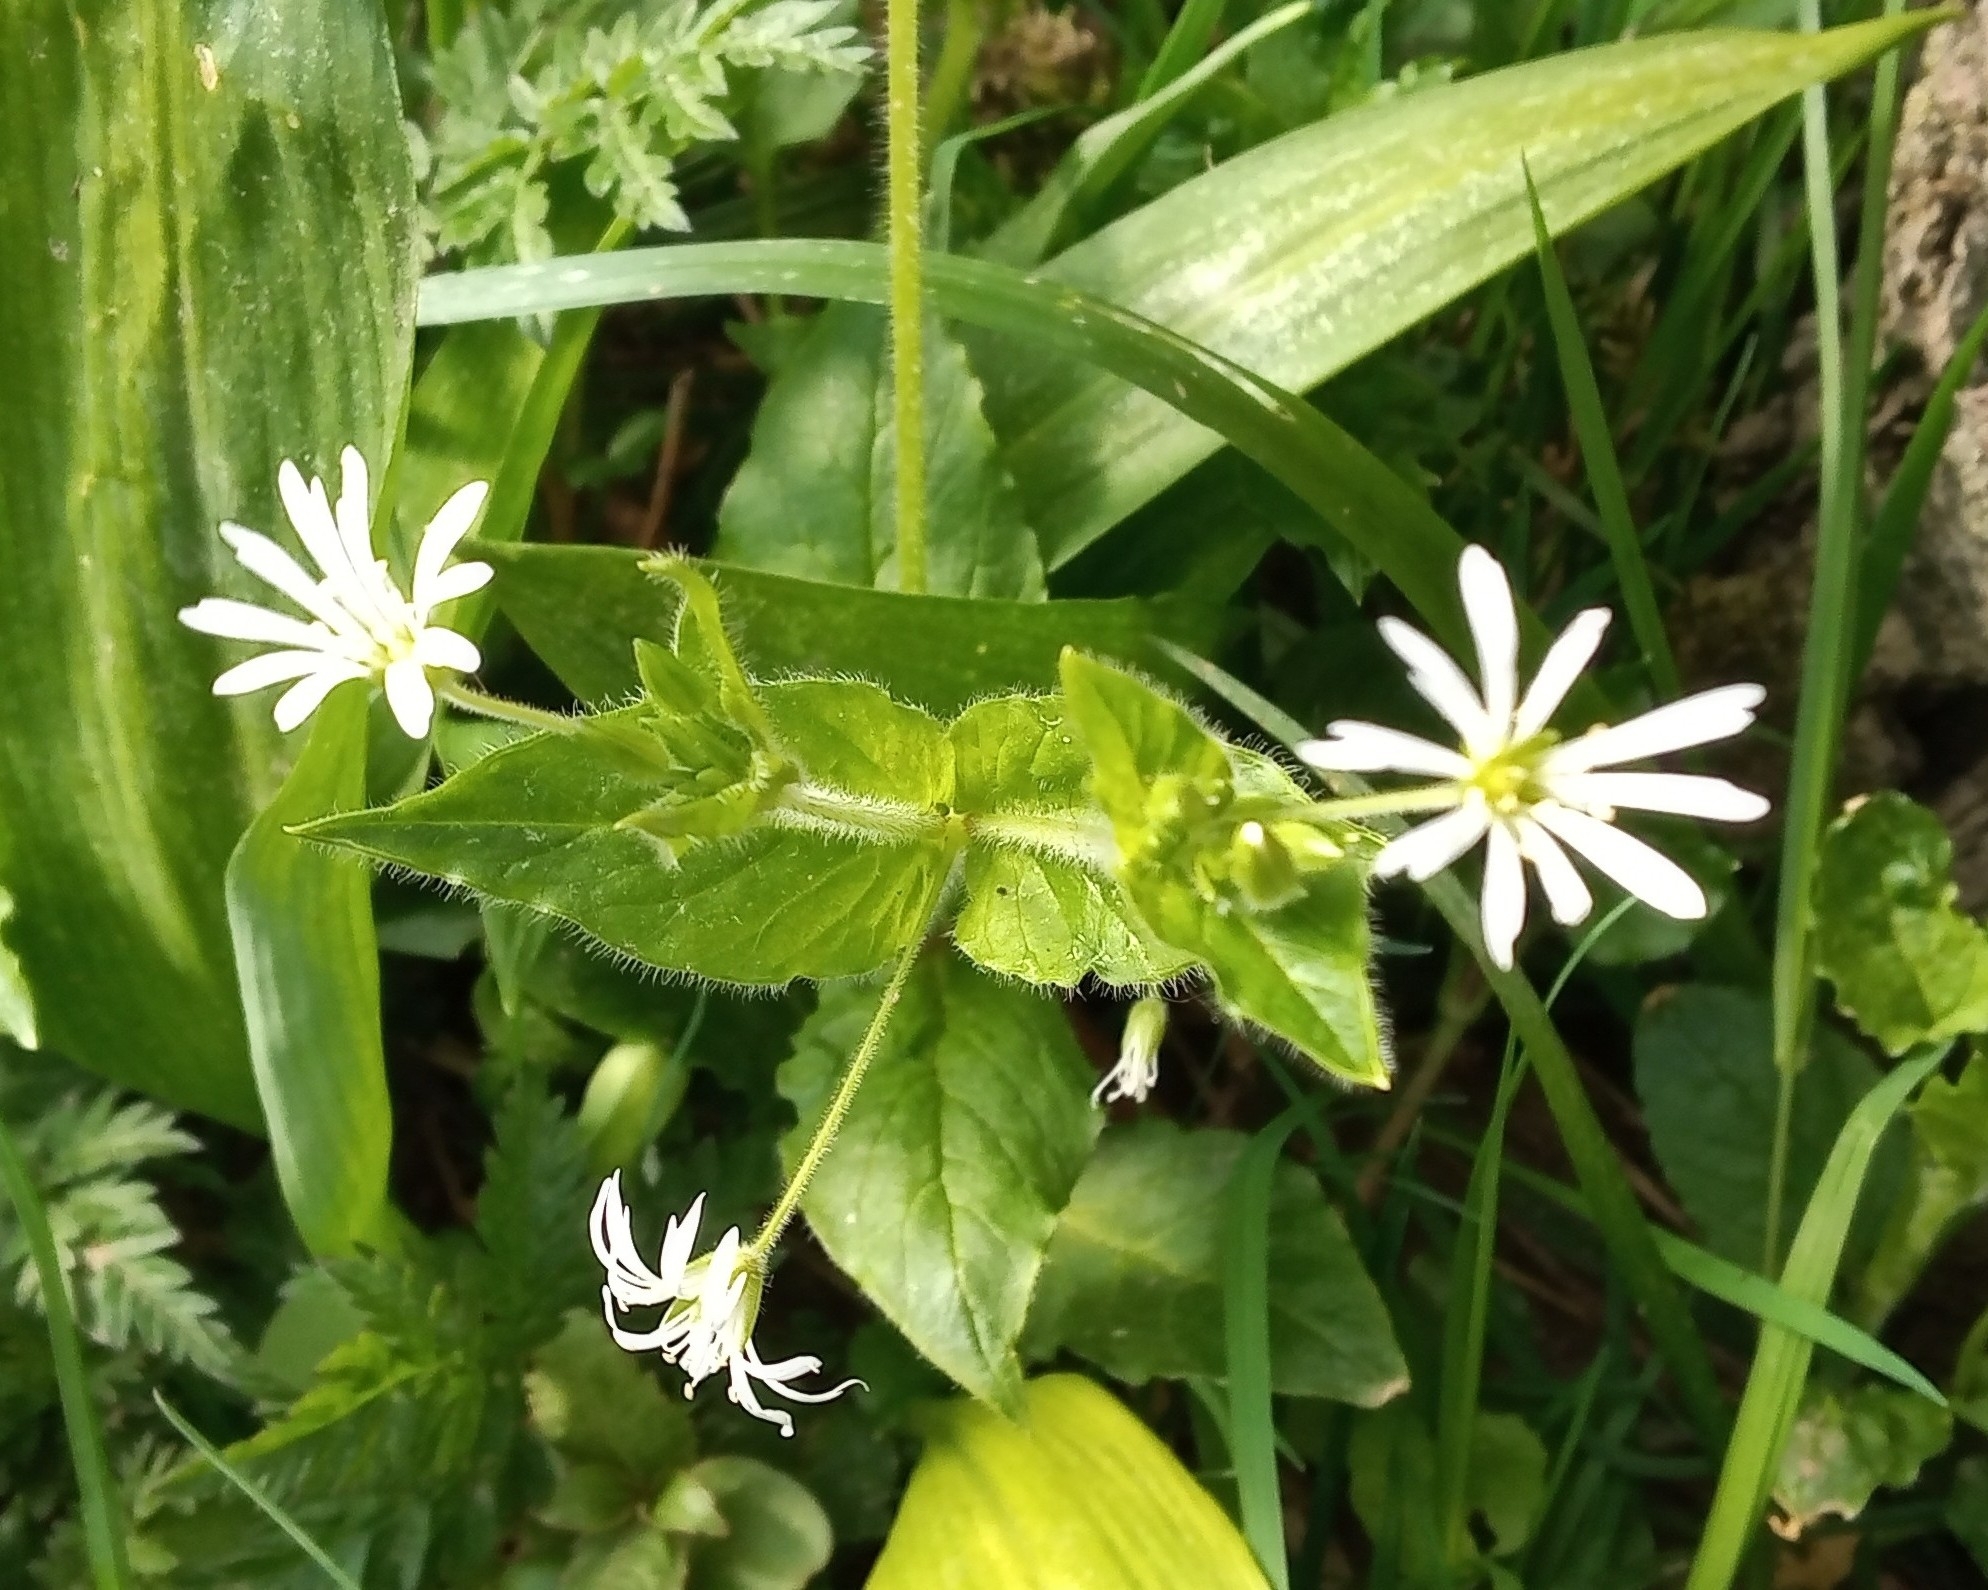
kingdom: Plantae
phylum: Tracheophyta
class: Magnoliopsida
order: Caryophyllales
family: Caryophyllaceae
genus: Stellaria
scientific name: Stellaria nemorum
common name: Wood stitchwort
